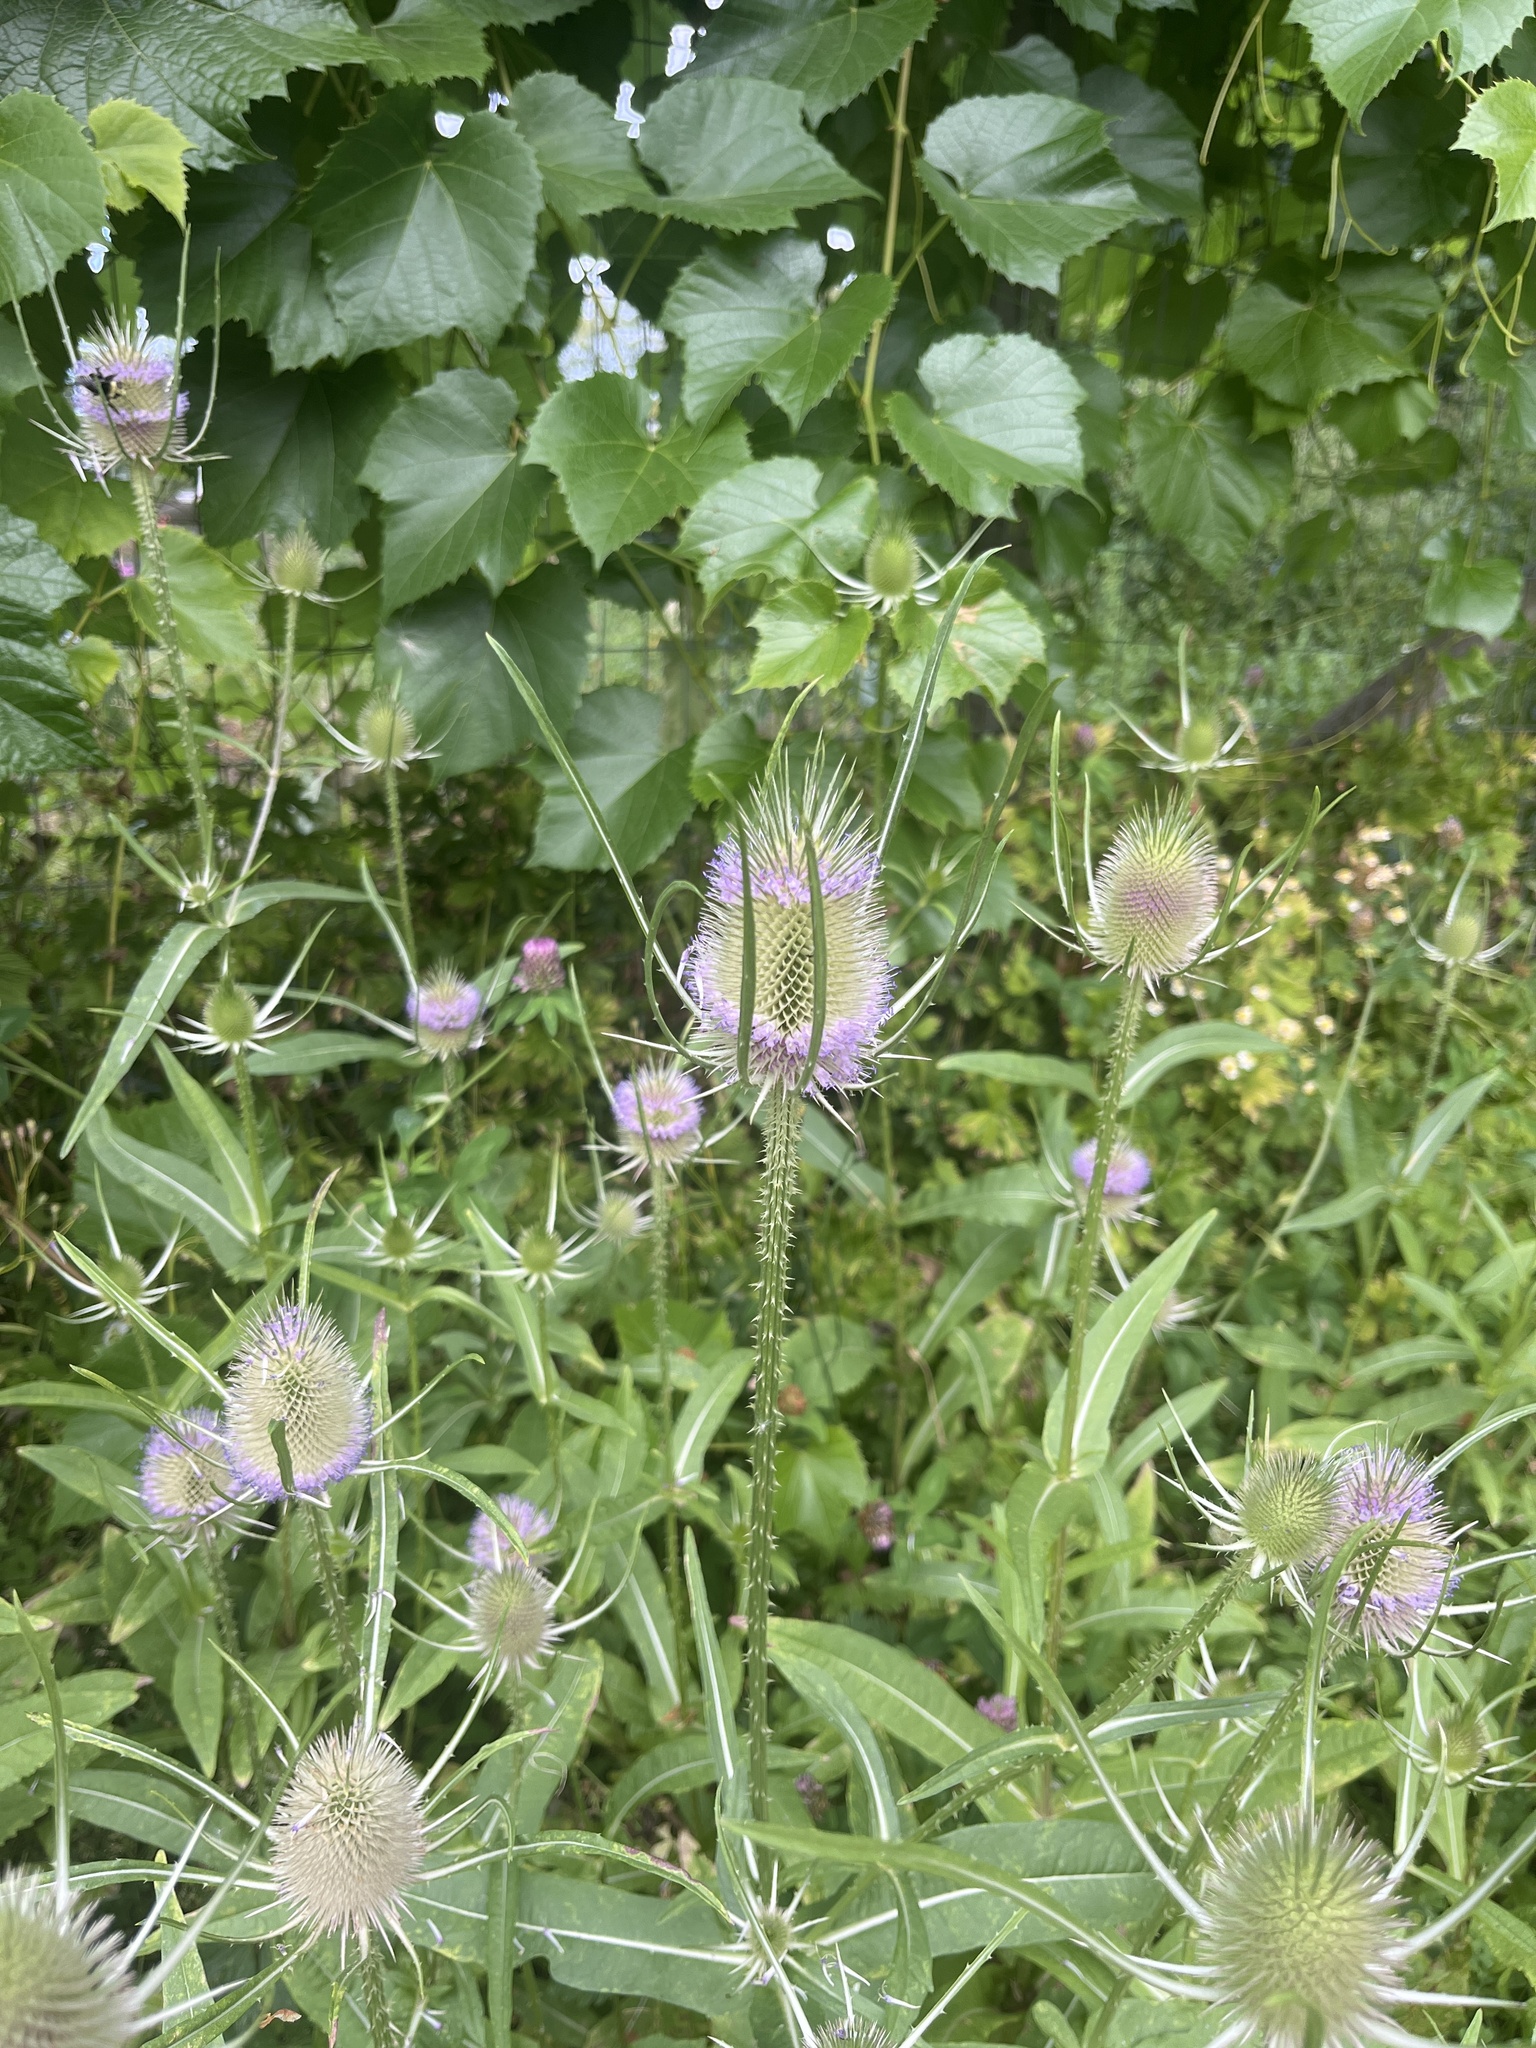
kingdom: Plantae
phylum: Tracheophyta
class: Magnoliopsida
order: Dipsacales
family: Caprifoliaceae
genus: Dipsacus
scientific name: Dipsacus fullonum
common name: Teasel
